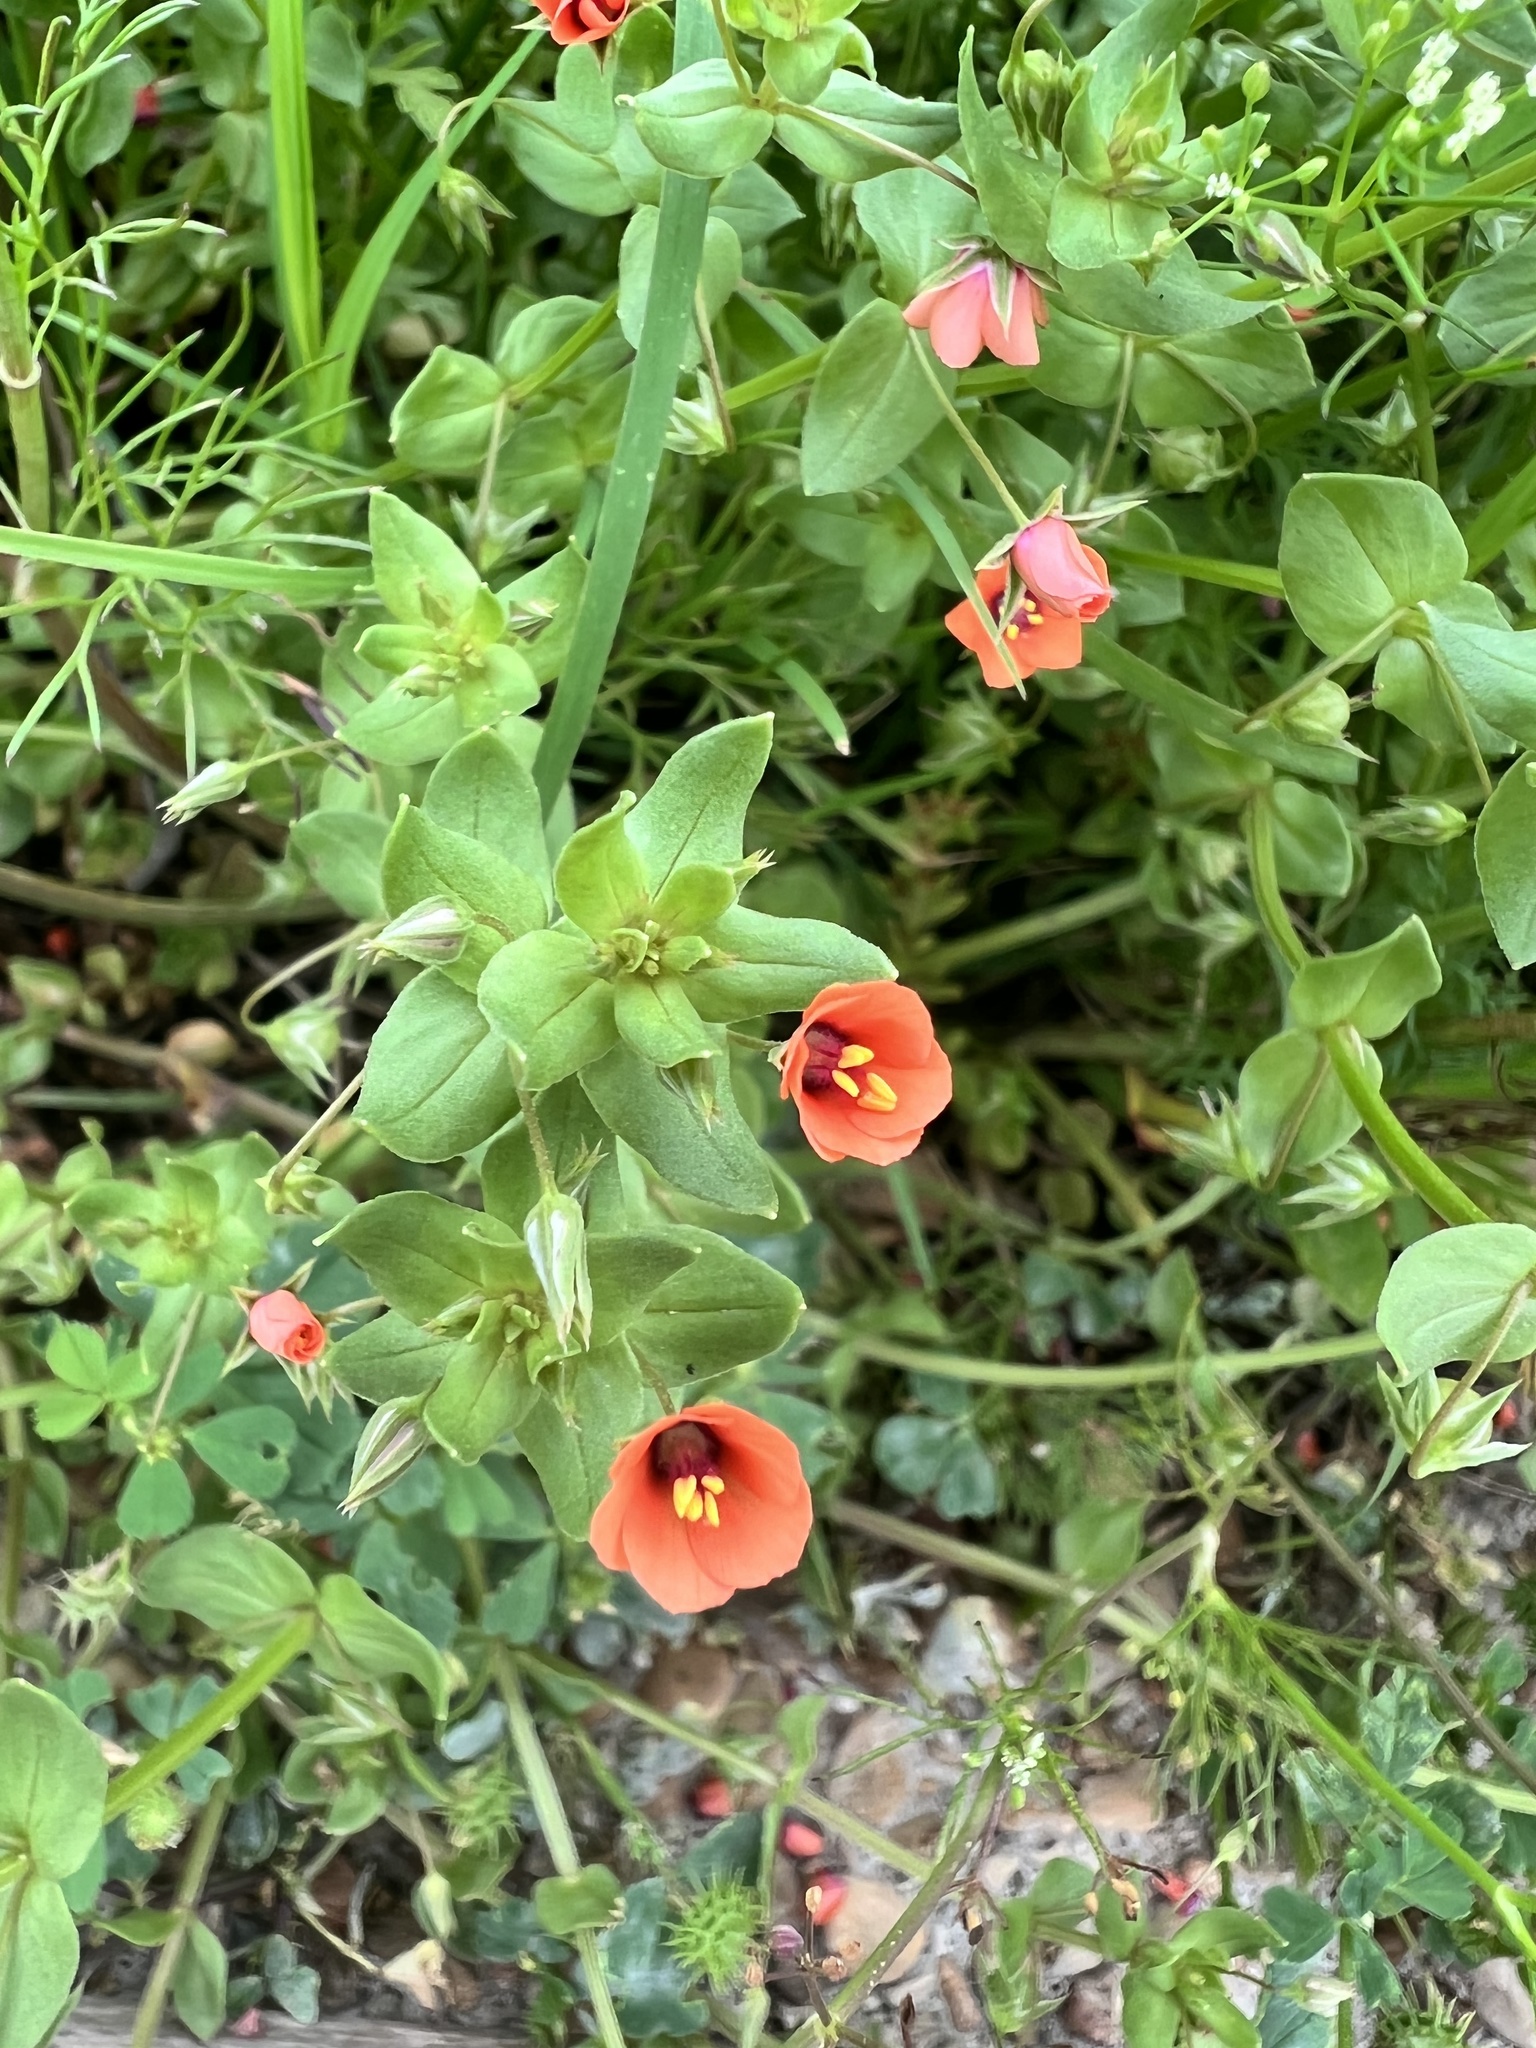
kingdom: Plantae
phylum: Tracheophyta
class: Magnoliopsida
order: Ericales
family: Primulaceae
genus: Lysimachia
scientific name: Lysimachia arvensis
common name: Scarlet pimpernel
